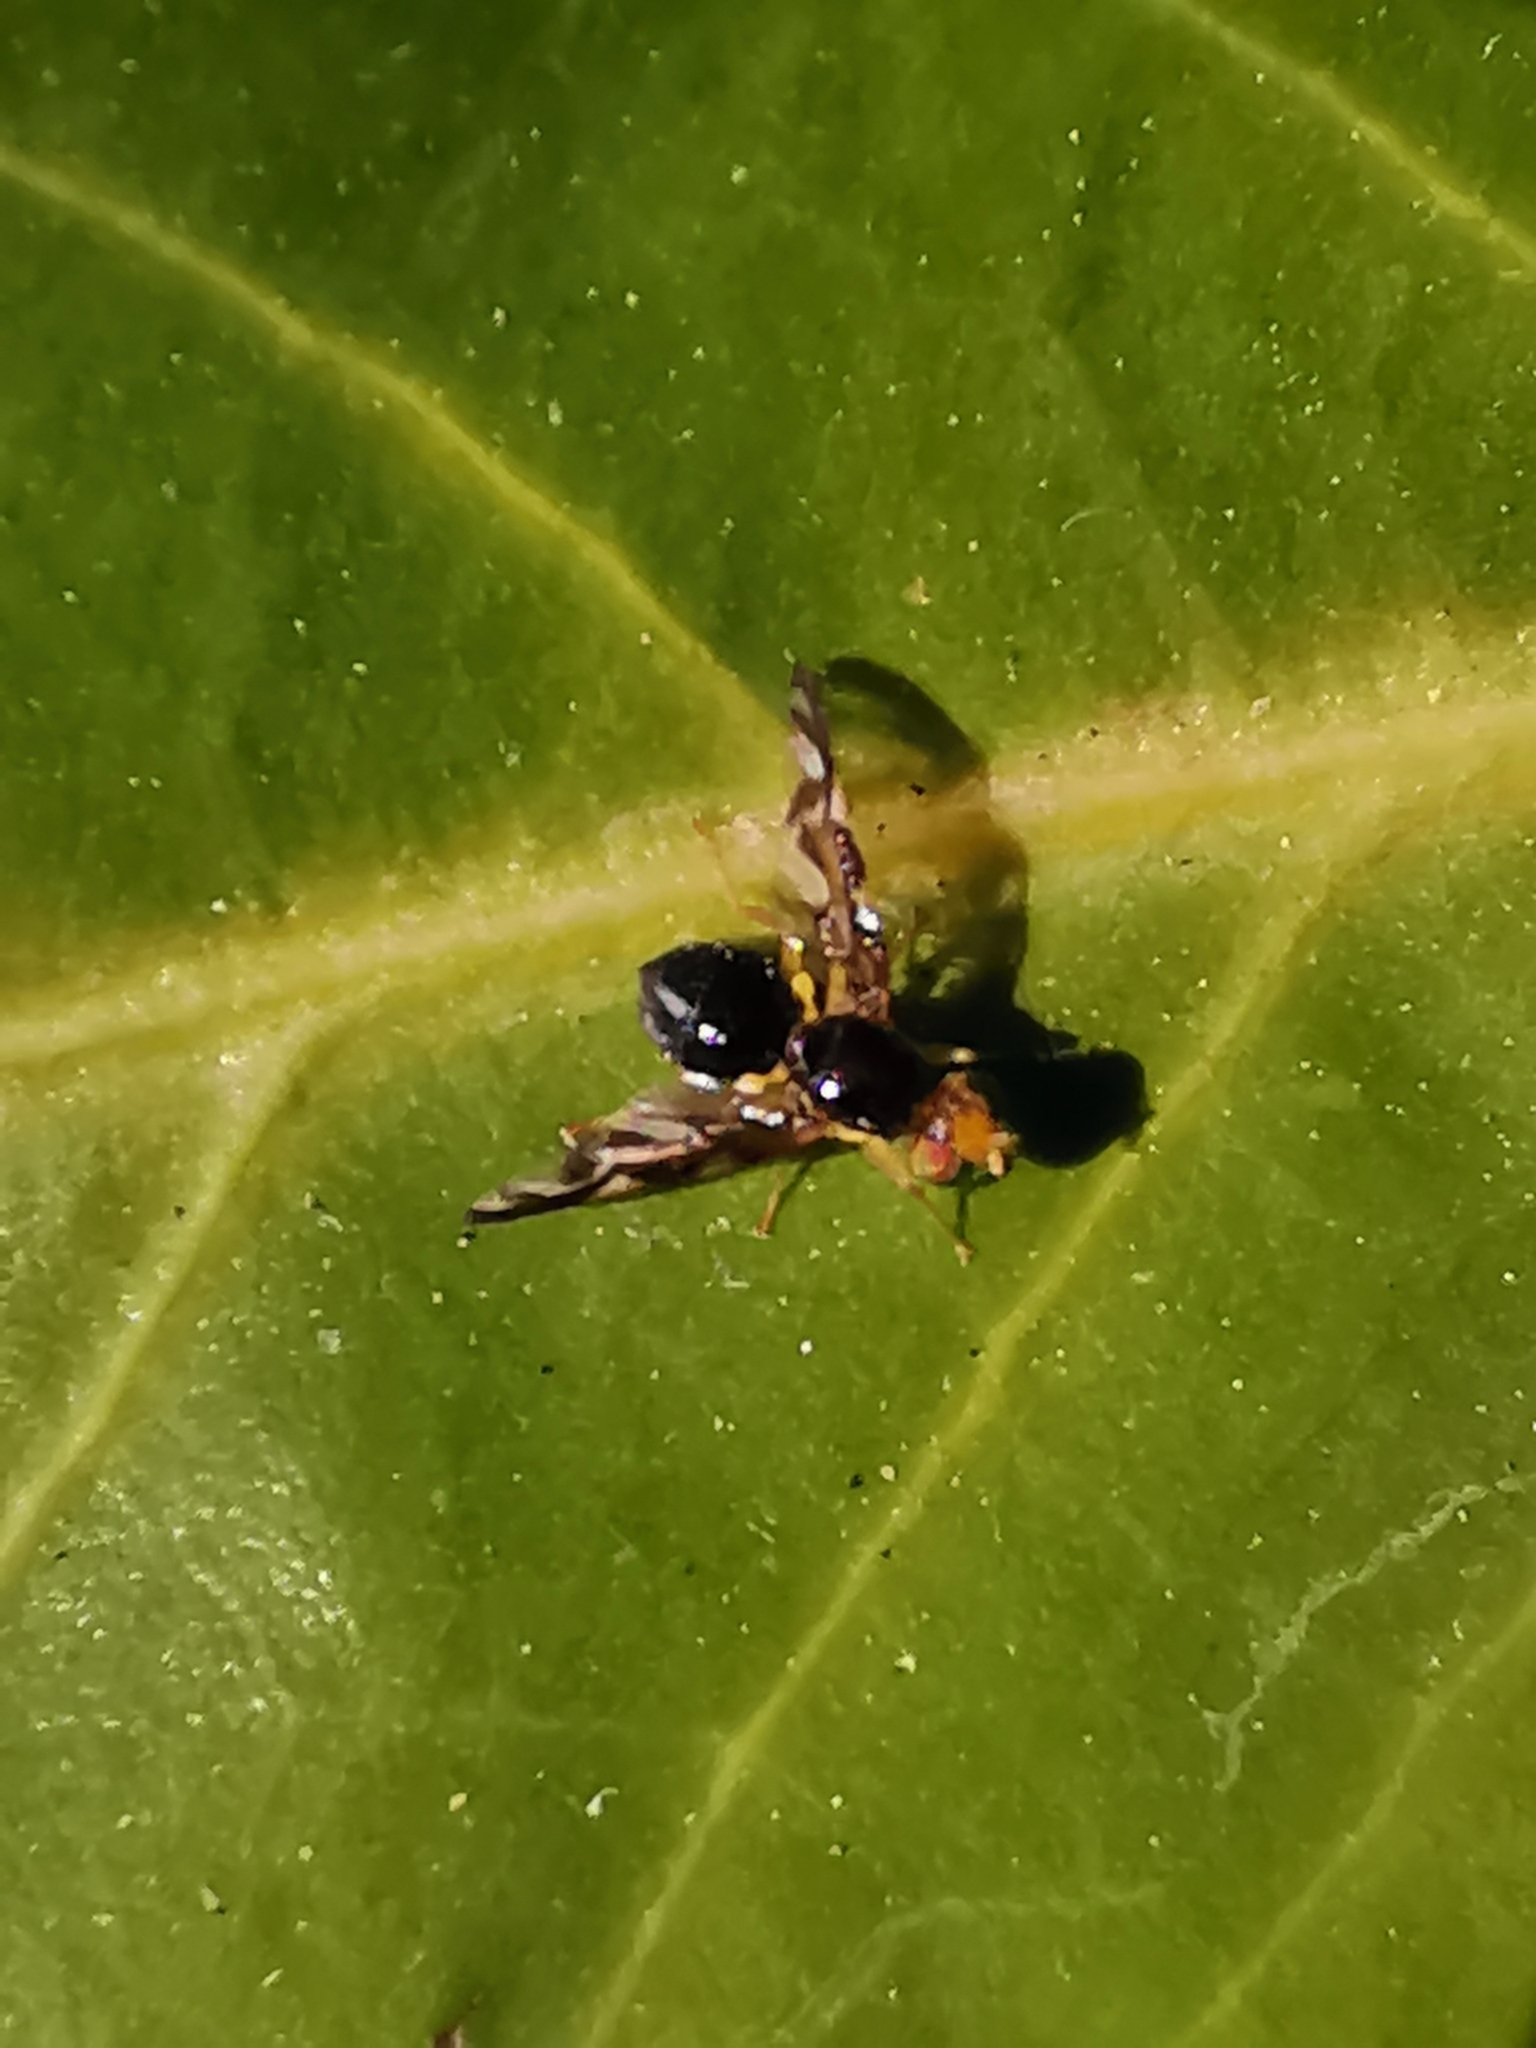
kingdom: Animalia
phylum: Arthropoda
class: Insecta
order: Diptera
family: Tephritidae
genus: Euleia
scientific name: Euleia heraclei
